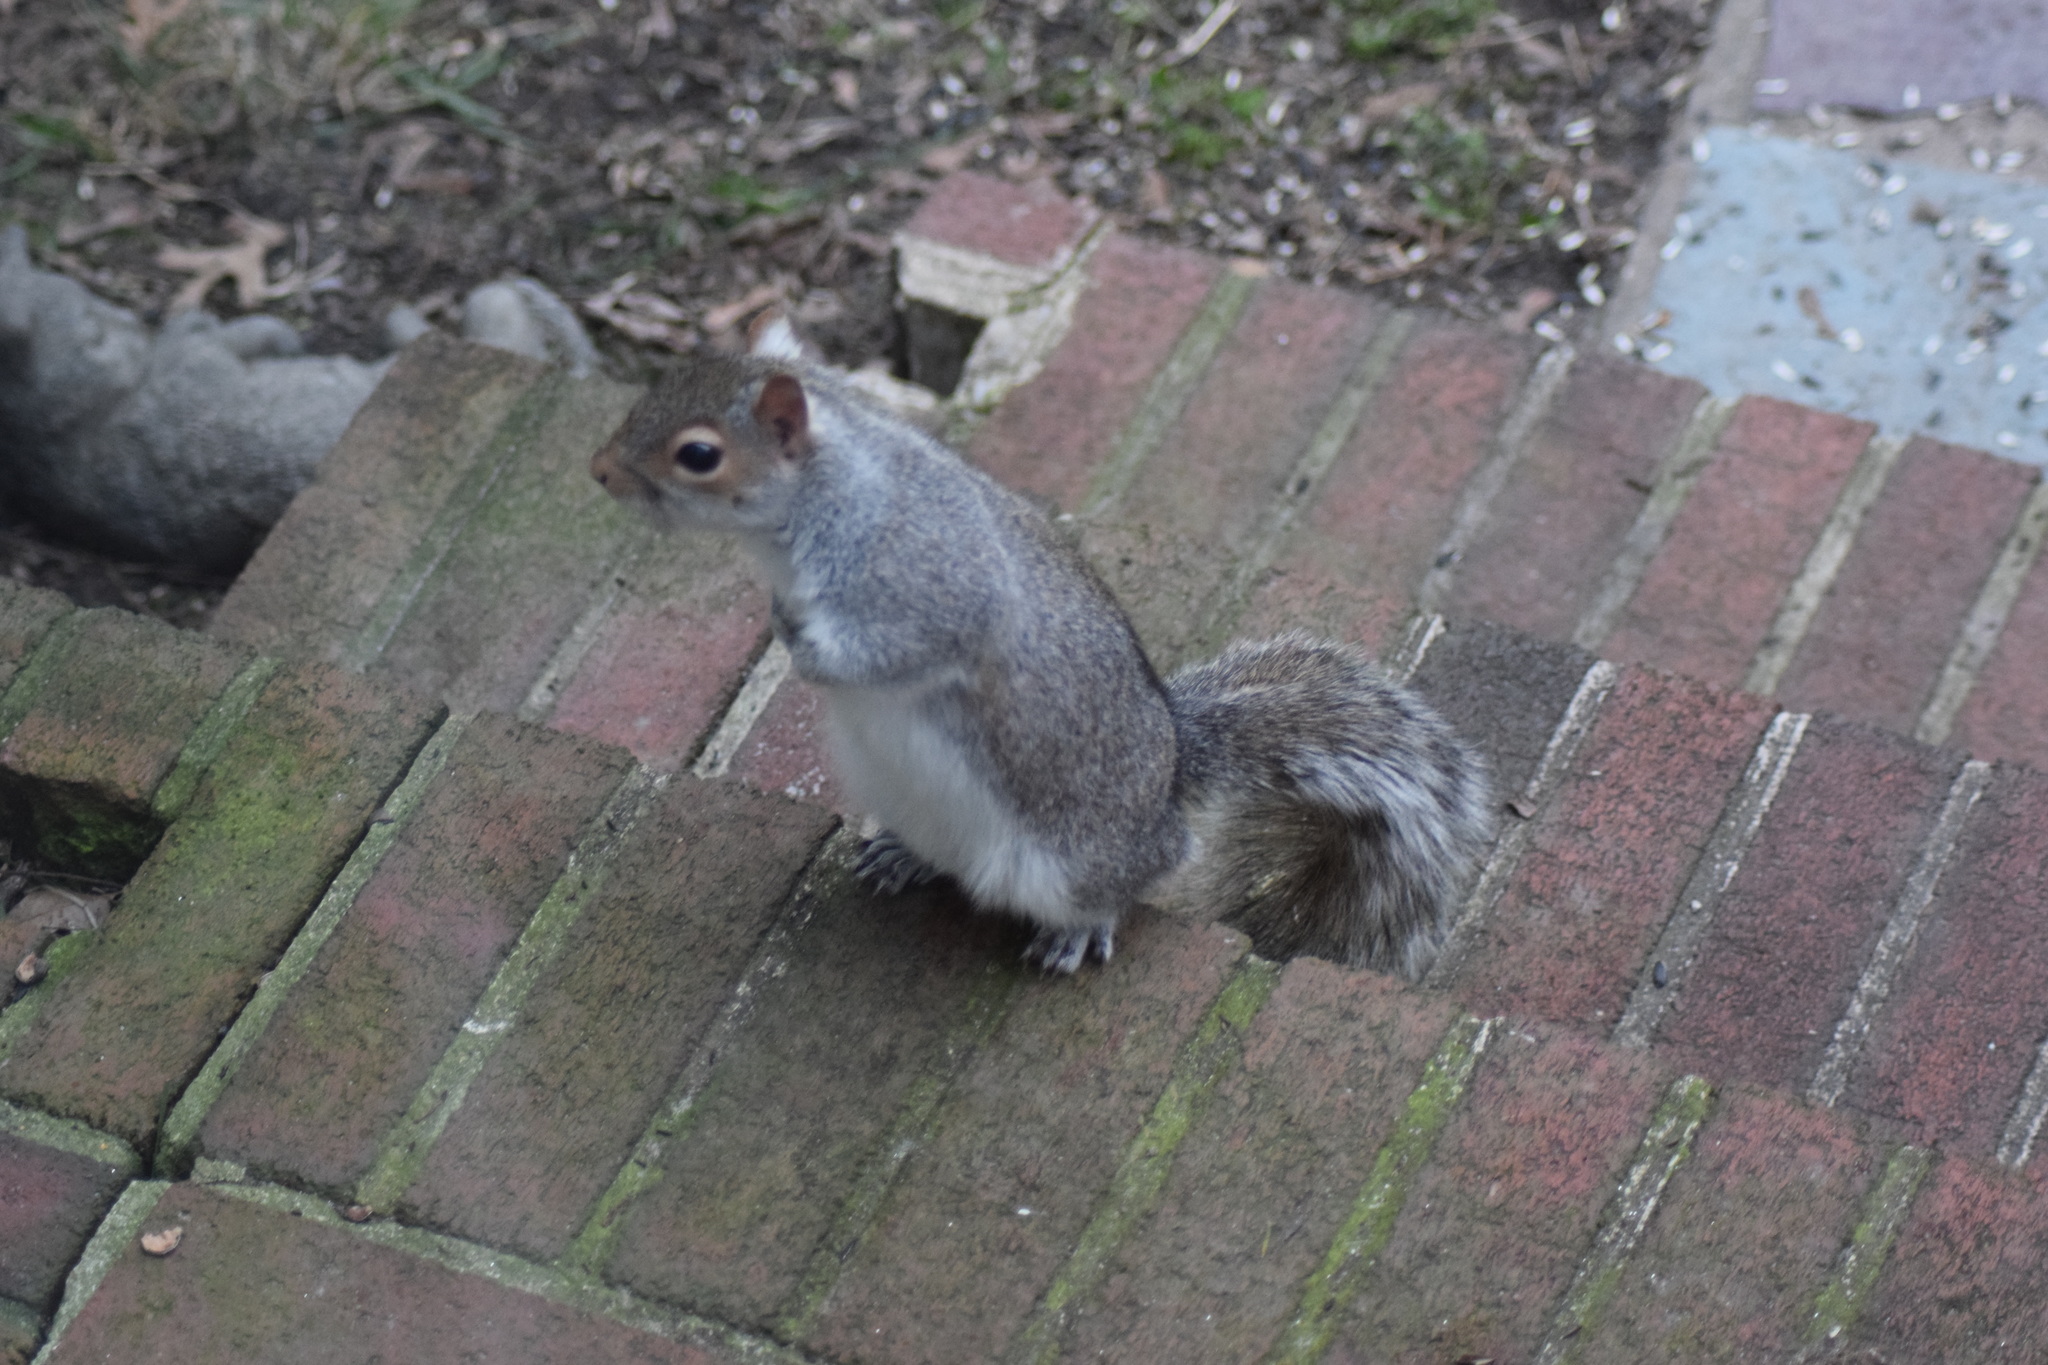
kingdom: Animalia
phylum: Chordata
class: Mammalia
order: Rodentia
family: Sciuridae
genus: Sciurus
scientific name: Sciurus carolinensis
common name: Eastern gray squirrel
